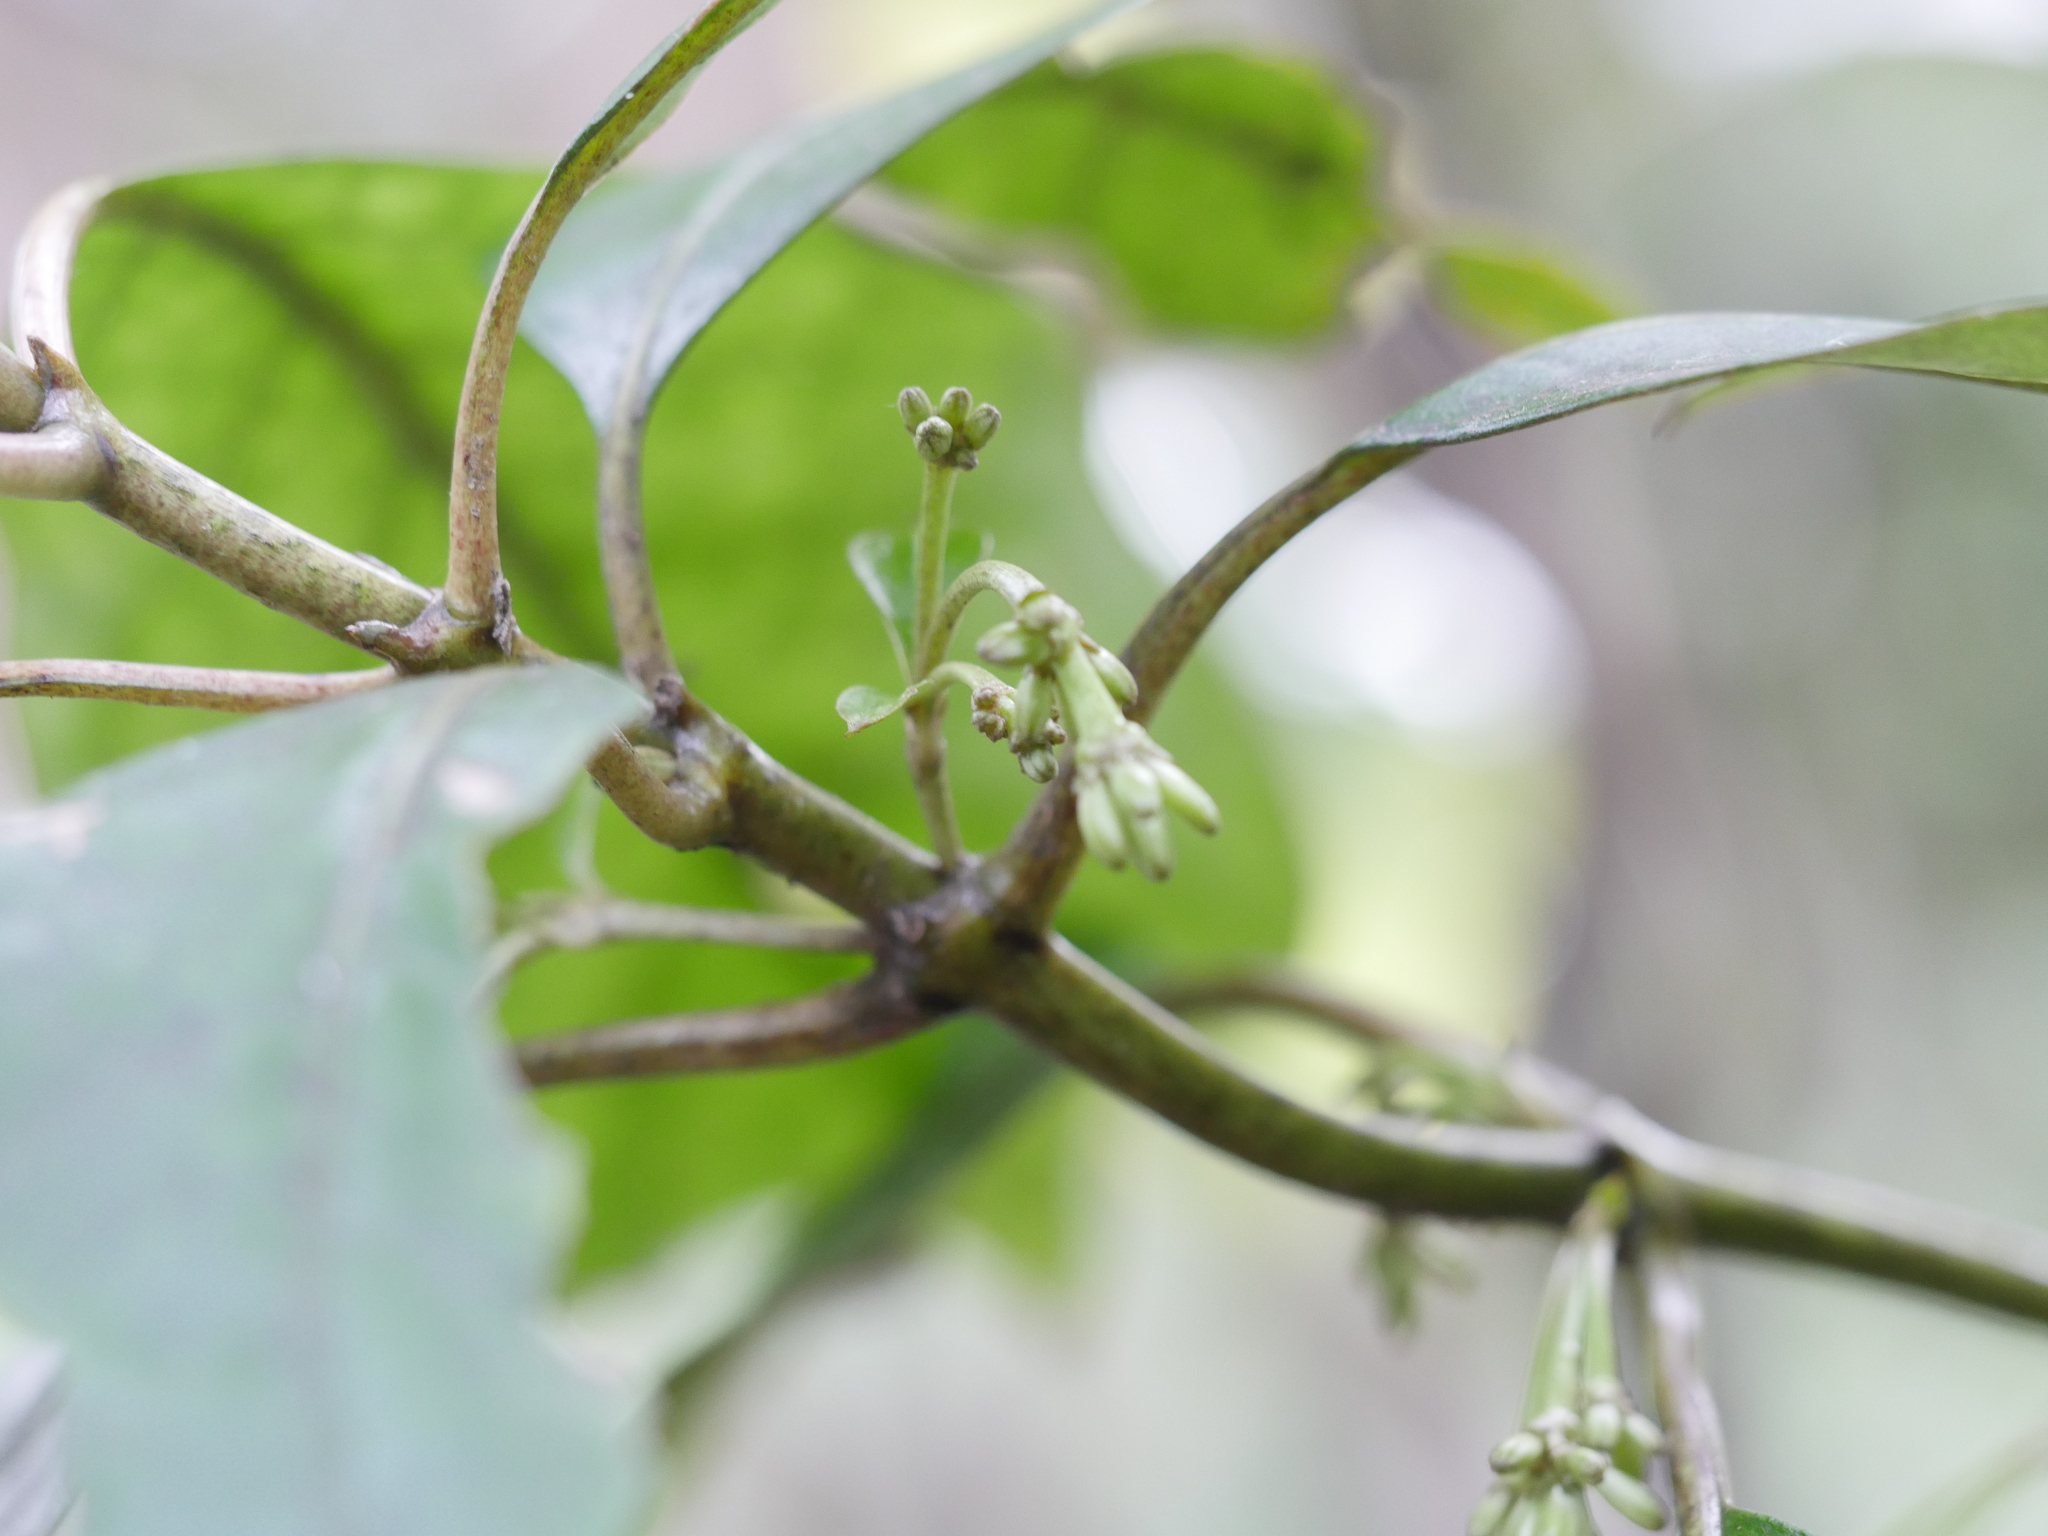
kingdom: Plantae
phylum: Tracheophyta
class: Magnoliopsida
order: Gentianales
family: Rubiaceae
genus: Coprosma
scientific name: Coprosma autumnalis
